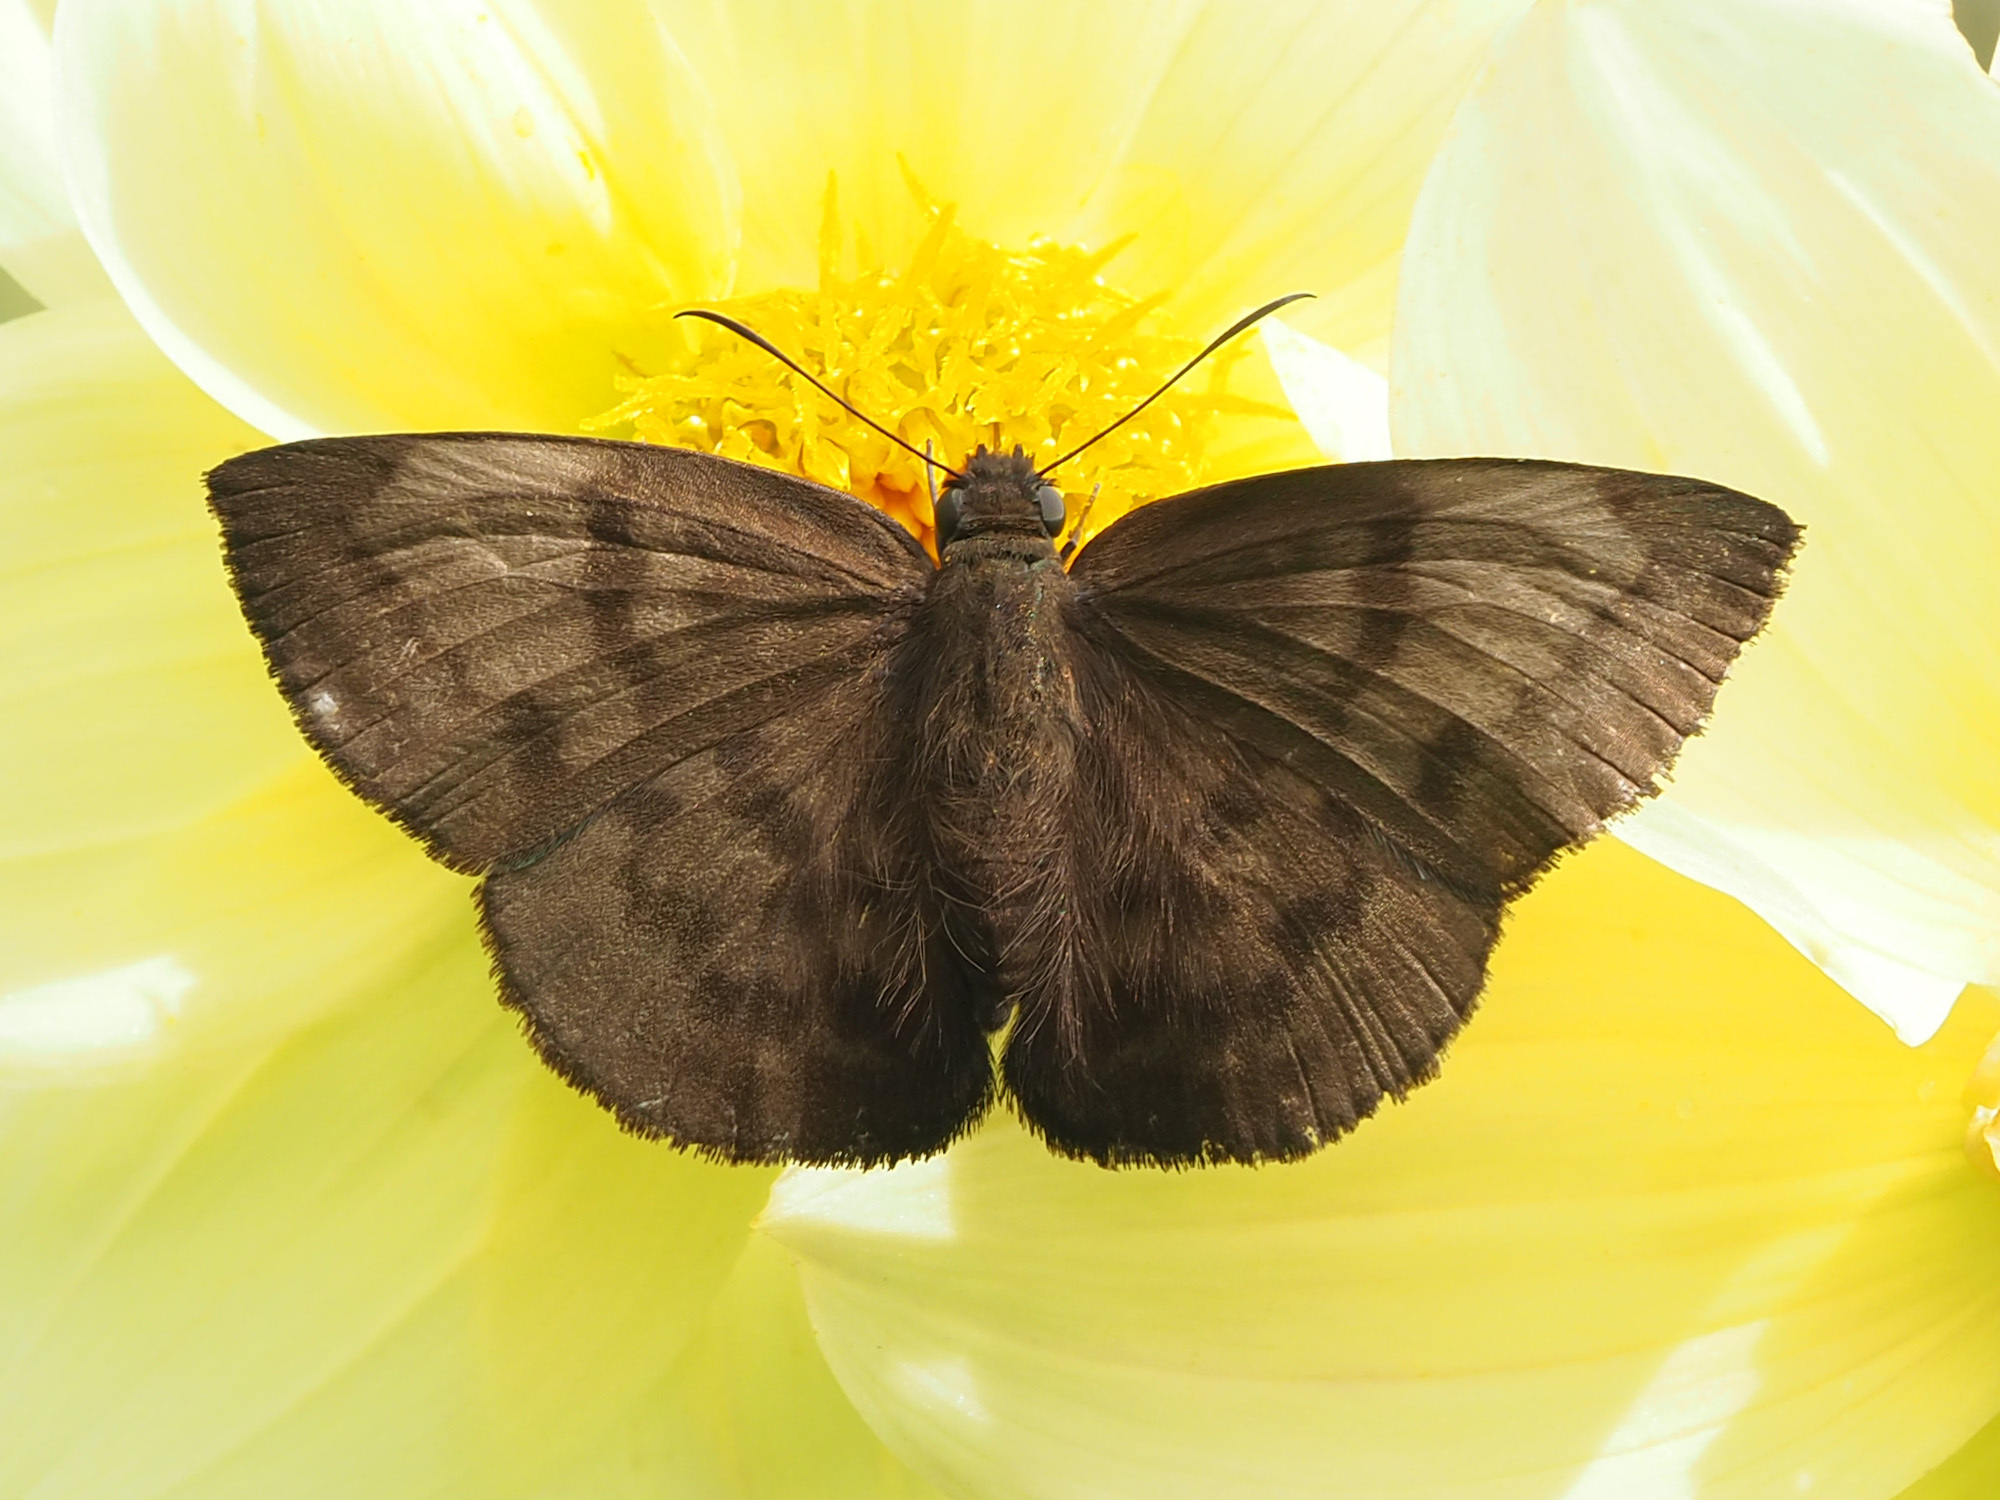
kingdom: Animalia
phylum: Arthropoda
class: Insecta
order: Lepidoptera
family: Hesperiidae
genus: Achlyodes
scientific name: Achlyodes pallida
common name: Pale sicklewing
